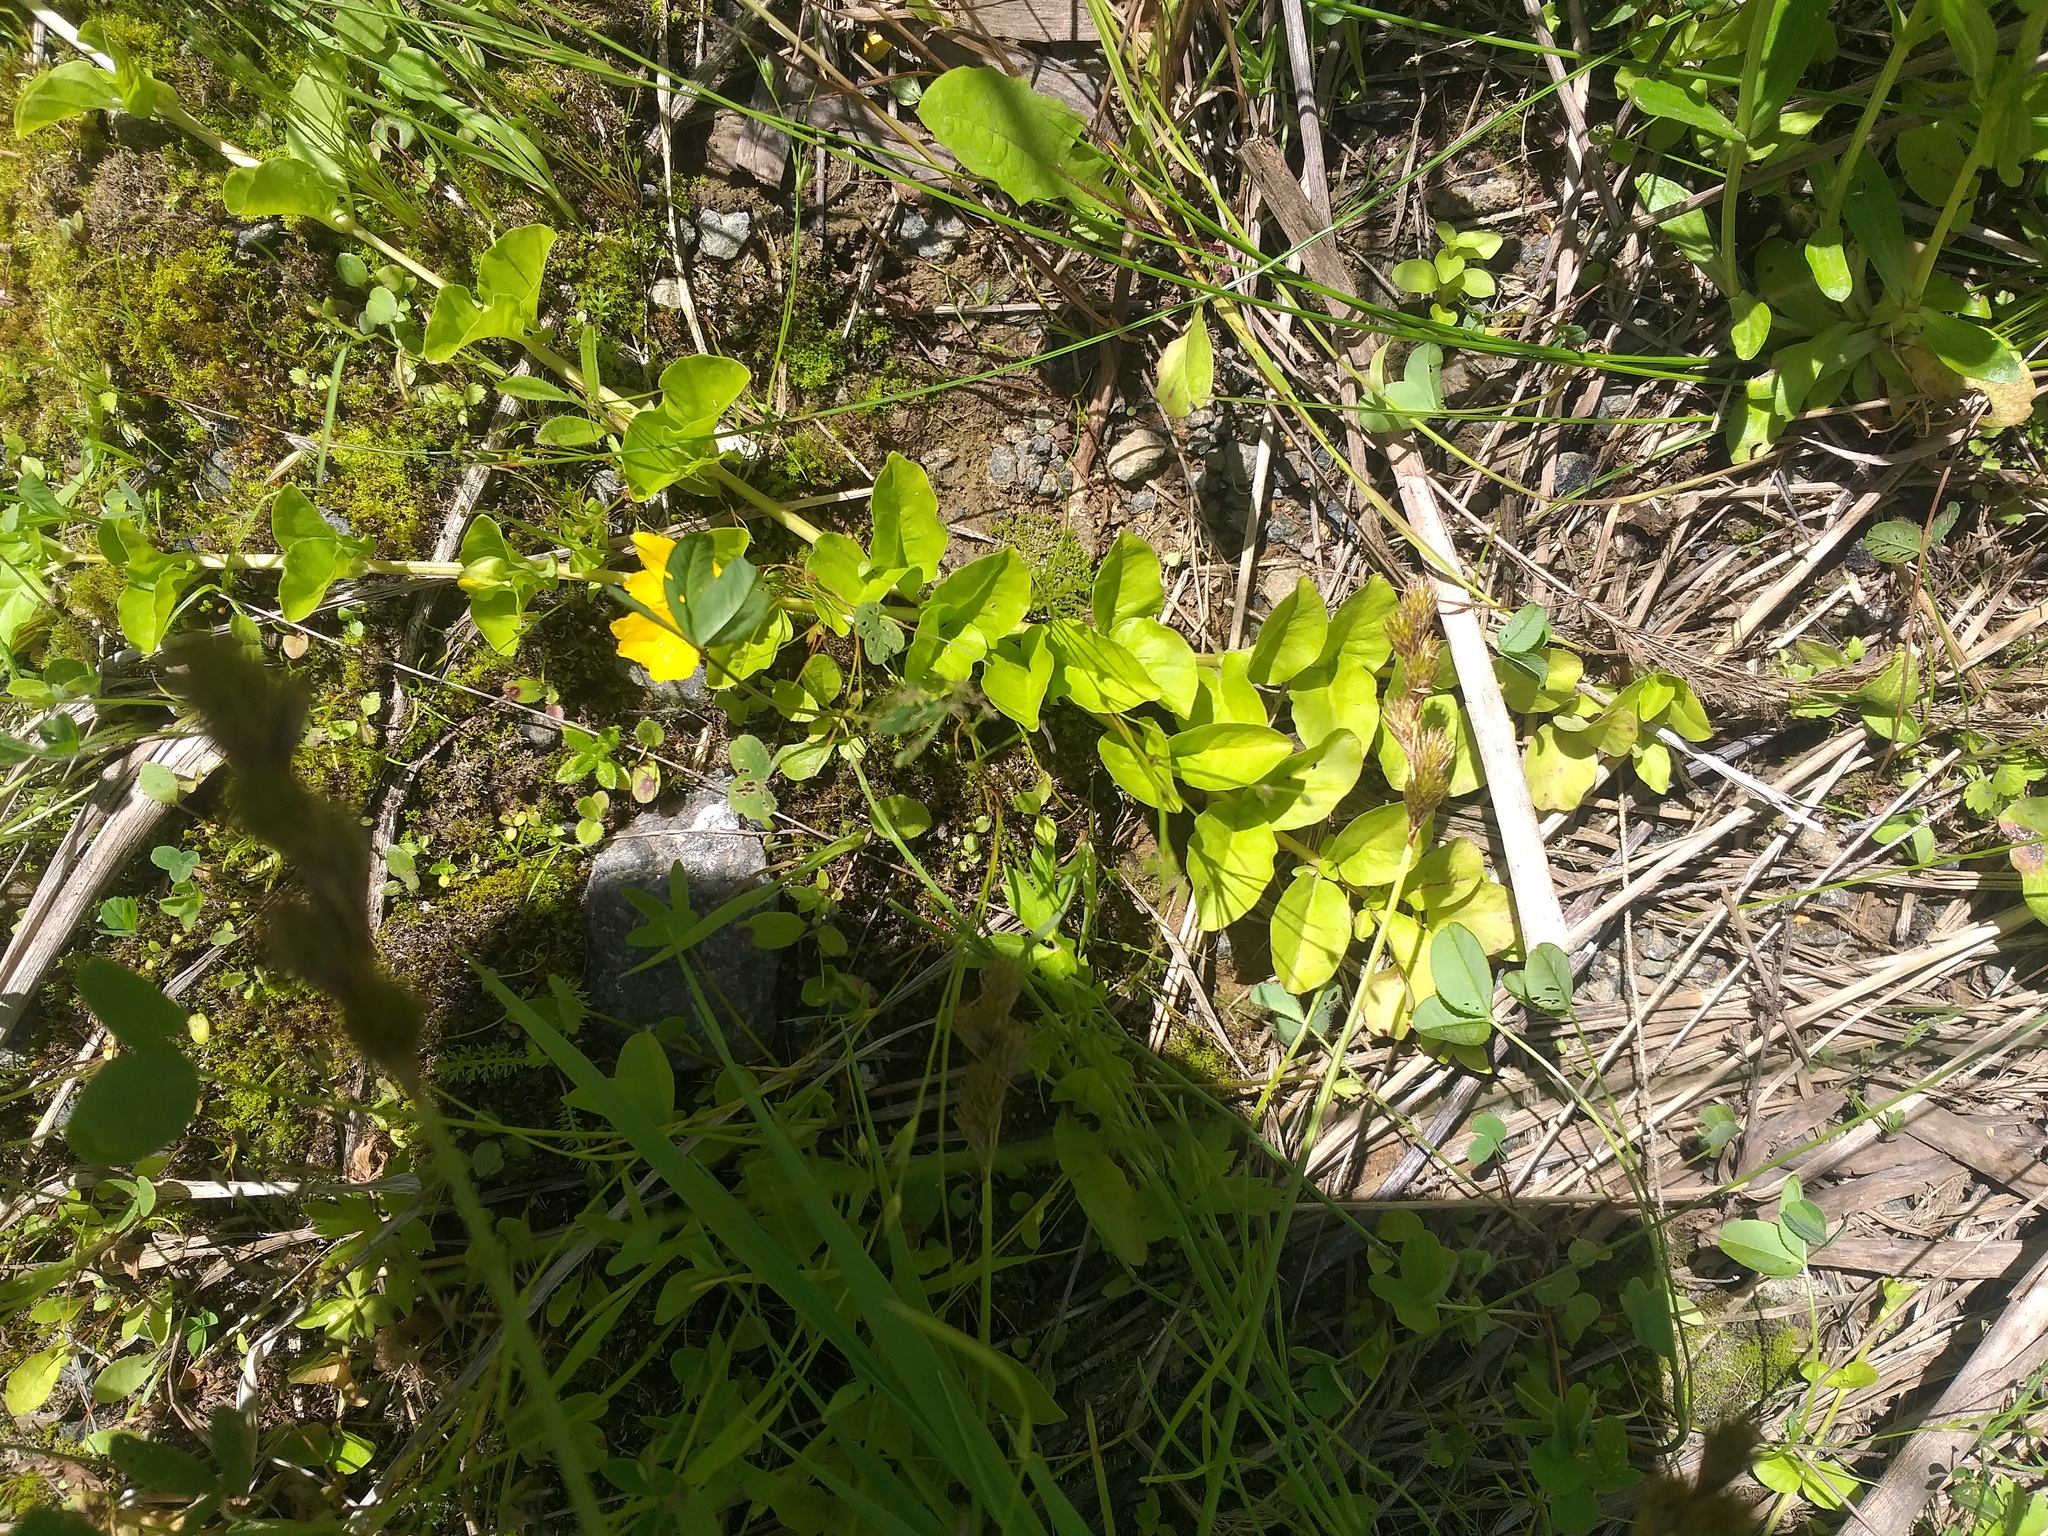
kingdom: Plantae
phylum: Tracheophyta
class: Magnoliopsida
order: Ericales
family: Primulaceae
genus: Lysimachia
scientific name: Lysimachia nummularia
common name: Moneywort
